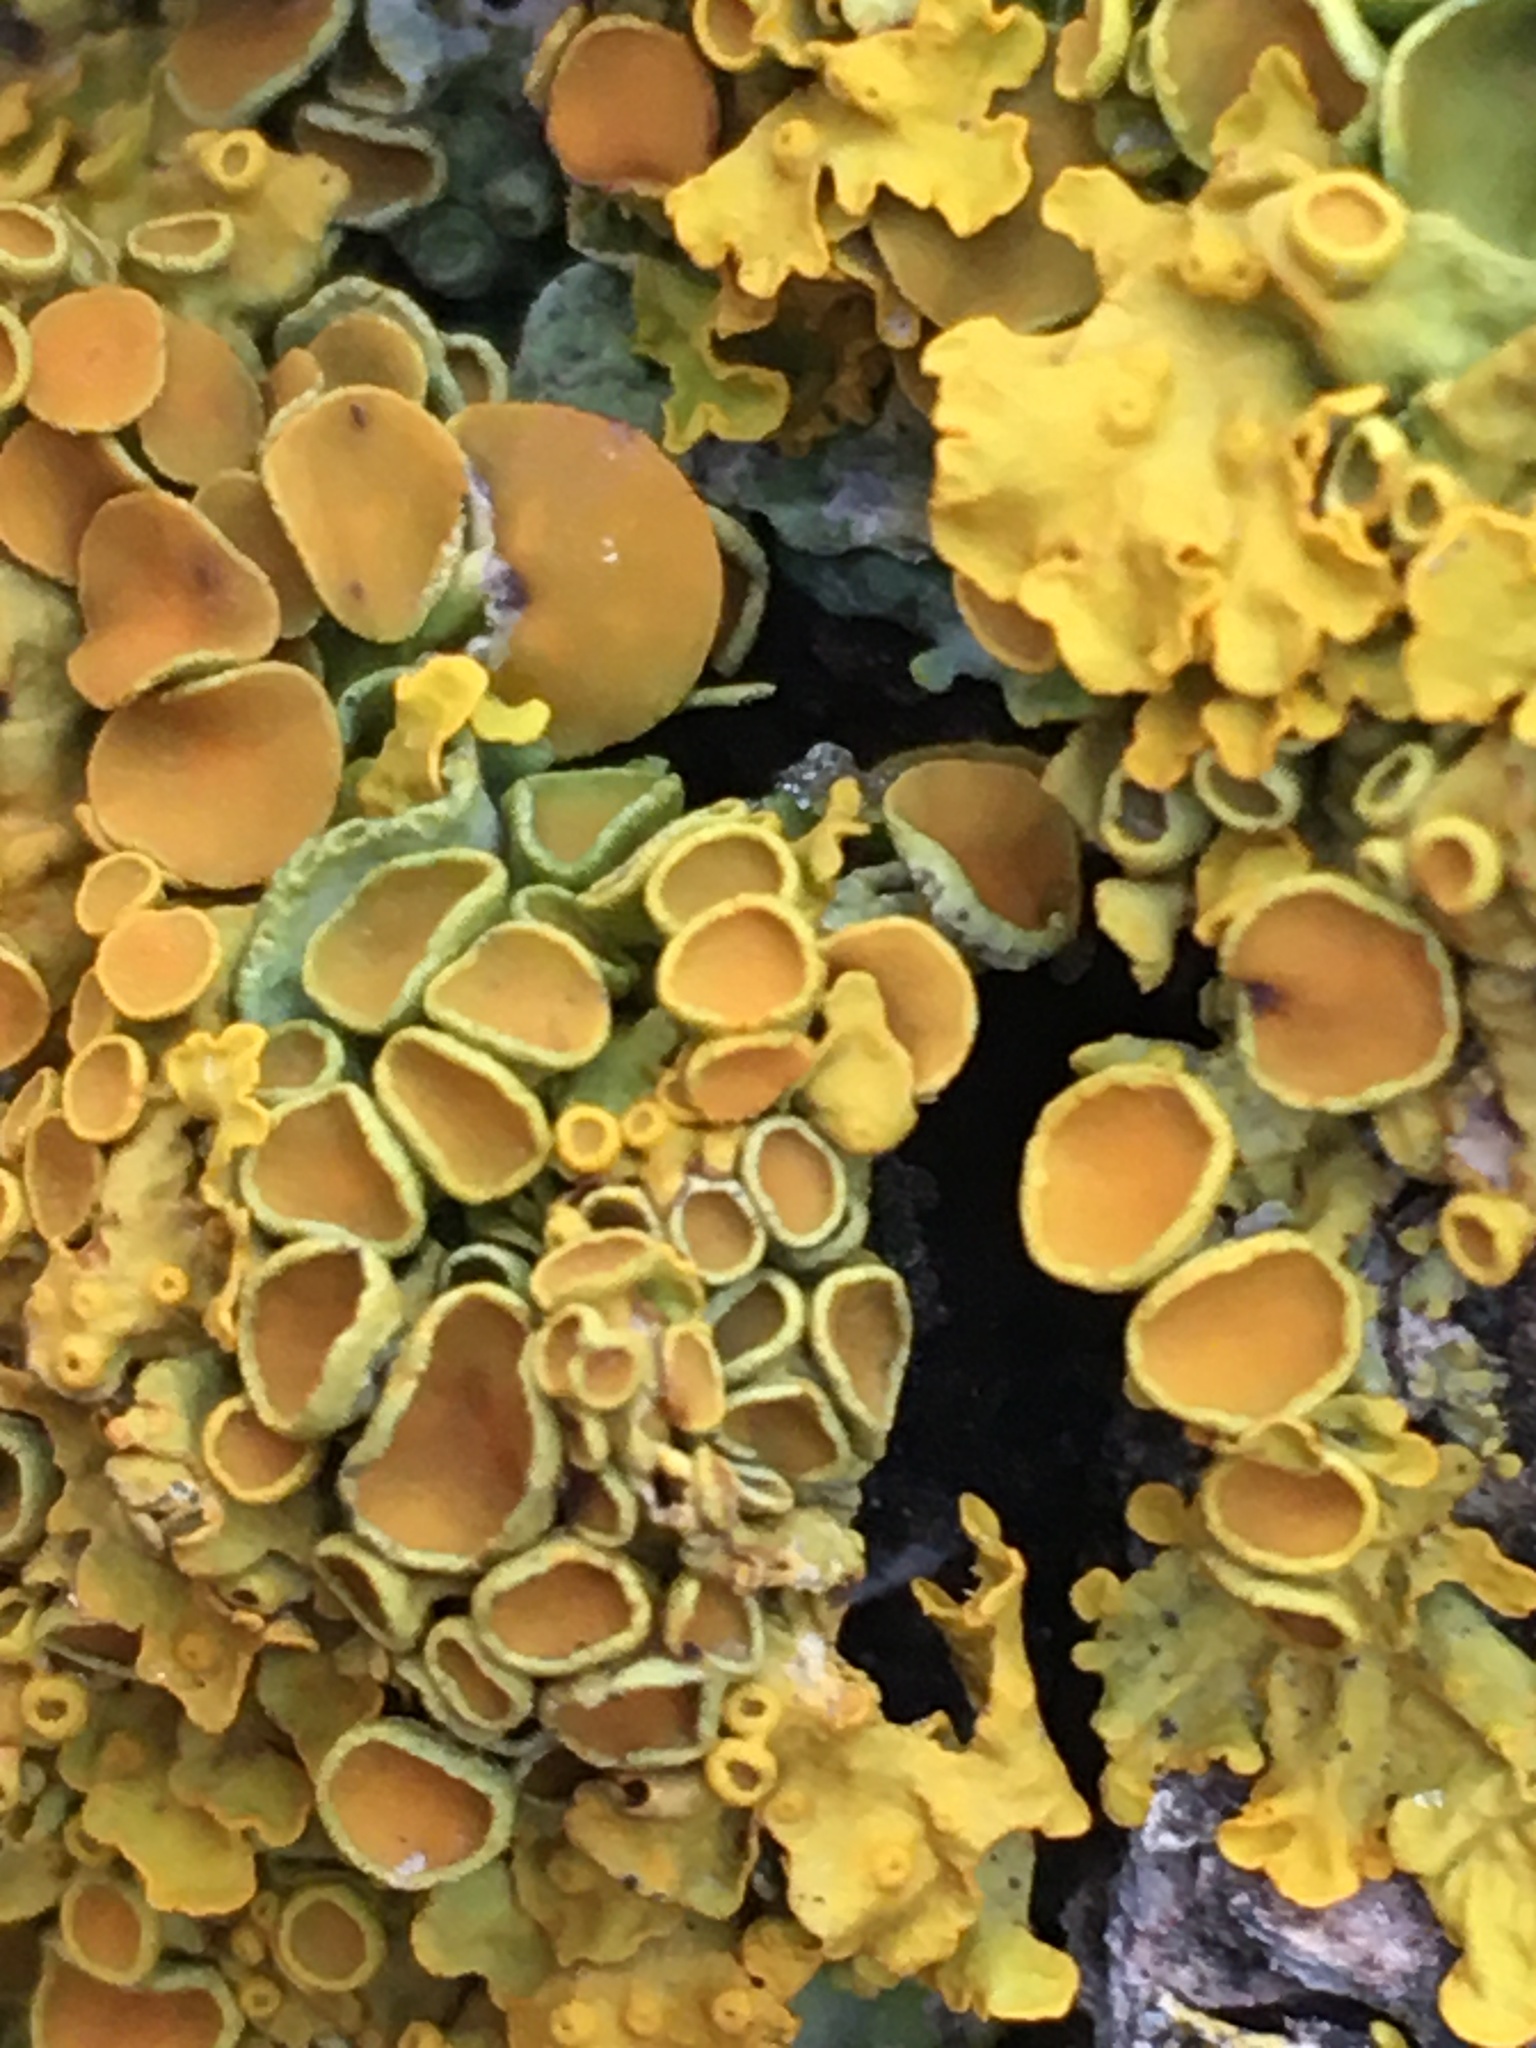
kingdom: Fungi
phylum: Ascomycota
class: Lecanoromycetes
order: Teloschistales
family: Teloschistaceae
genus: Xanthoria
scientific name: Xanthoria parietina
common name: Common orange lichen
